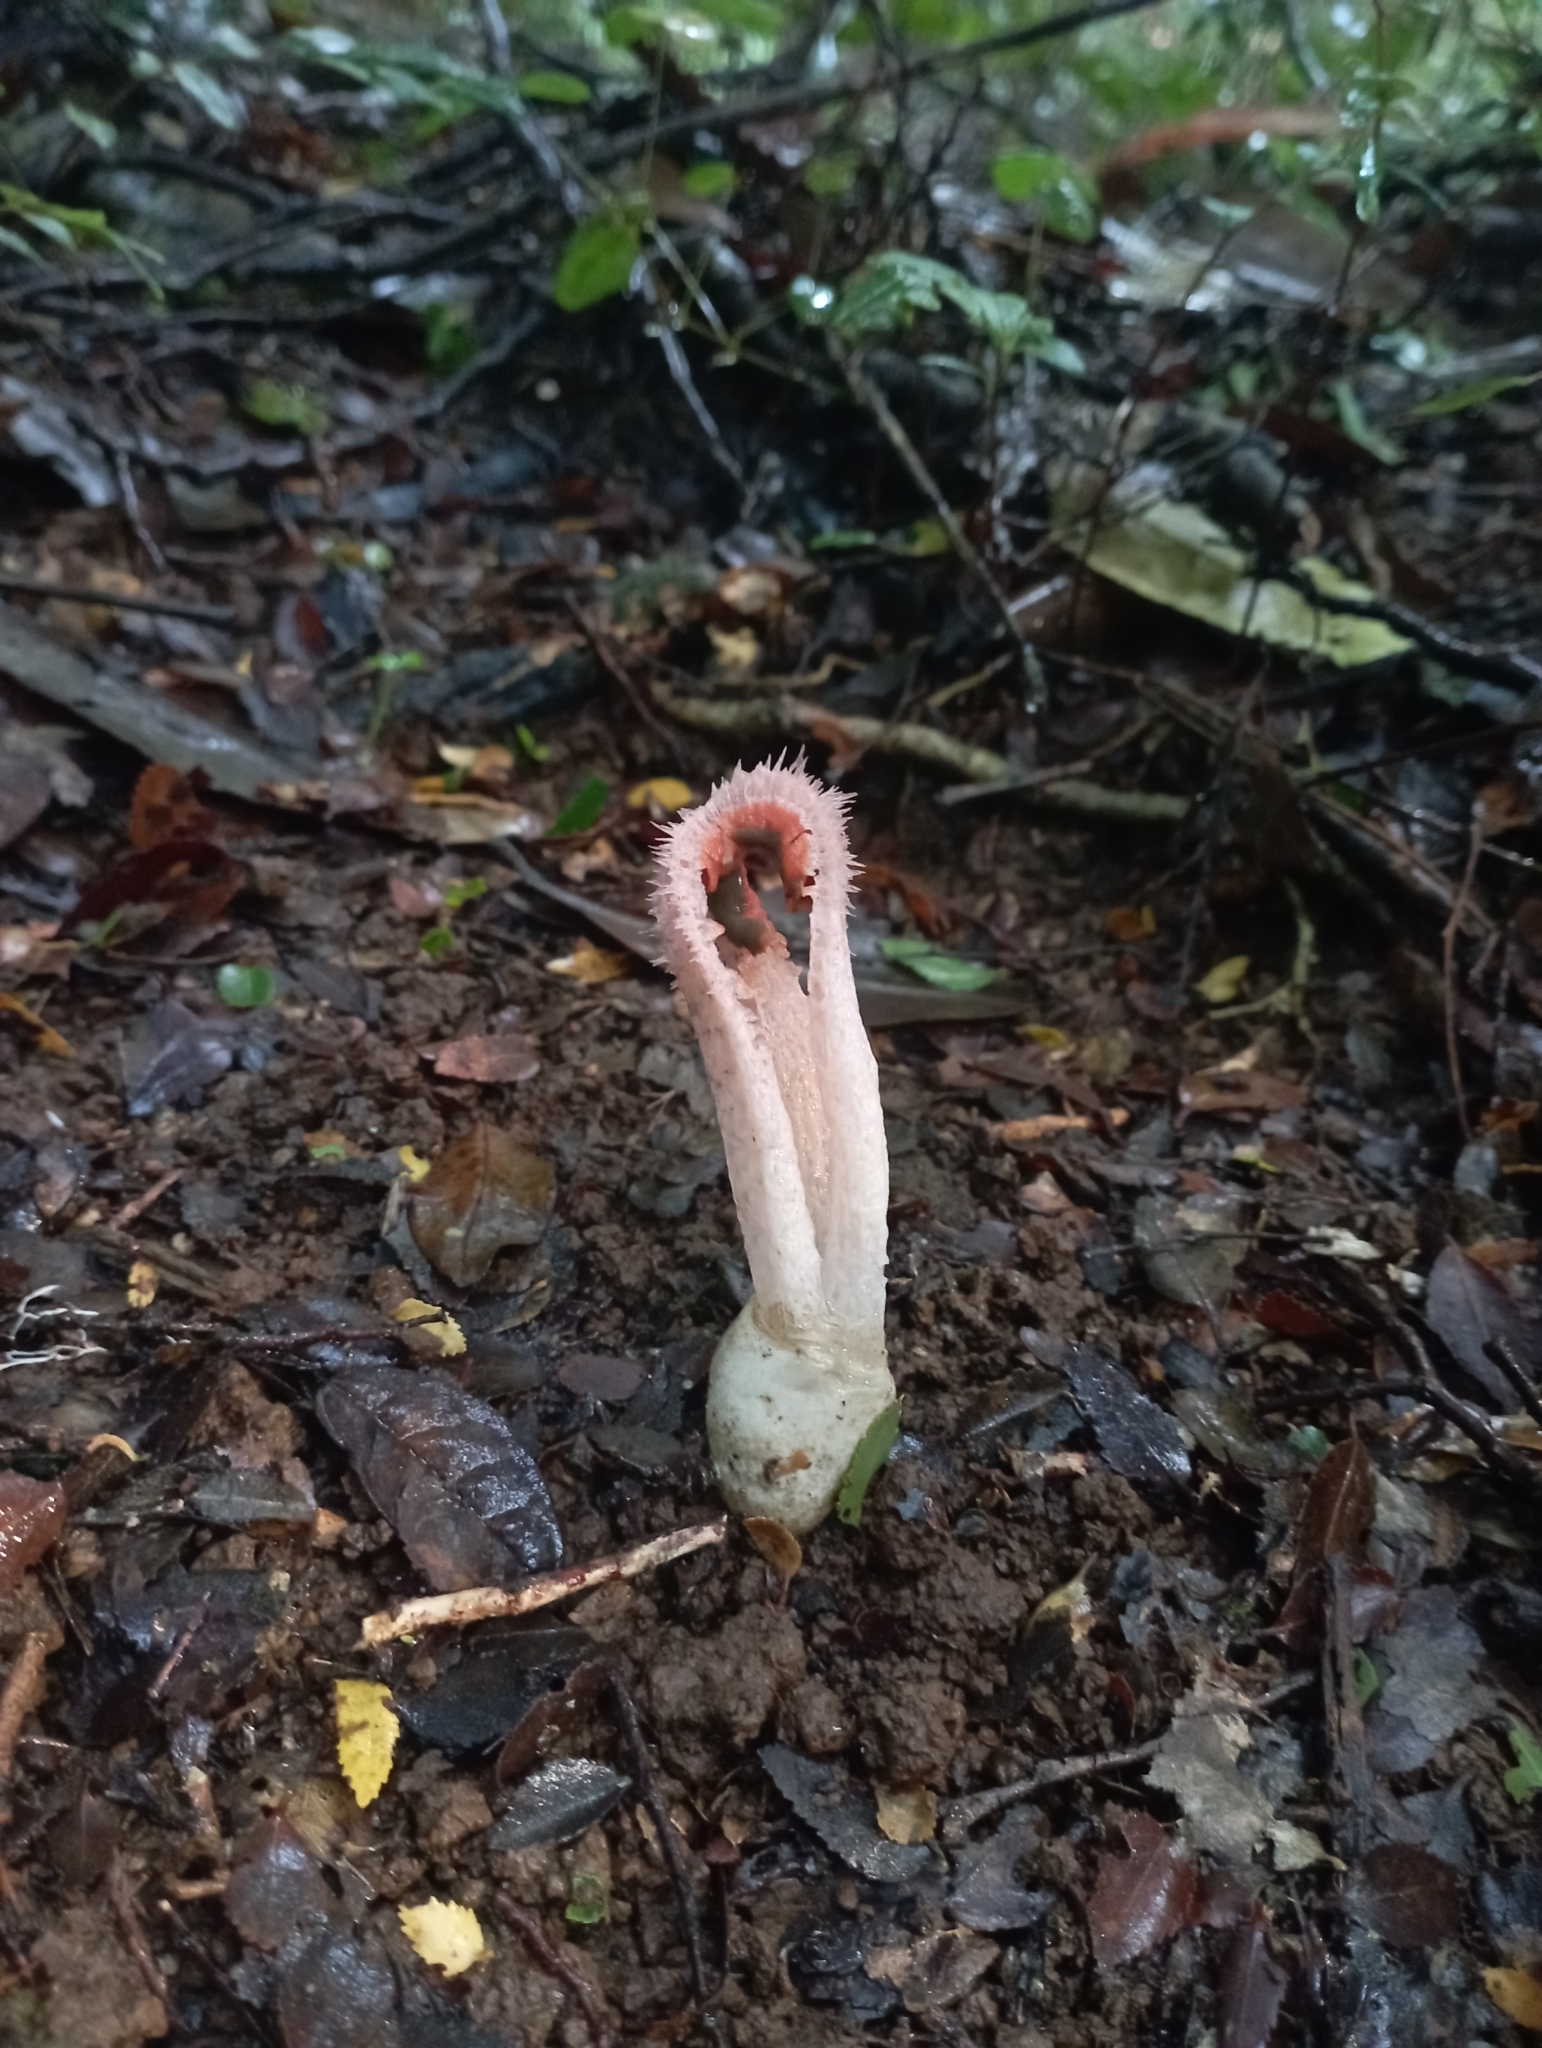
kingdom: Fungi
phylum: Basidiomycota
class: Agaricomycetes
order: Phallales
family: Phallaceae
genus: Laternea
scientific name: Laternea pusilla
